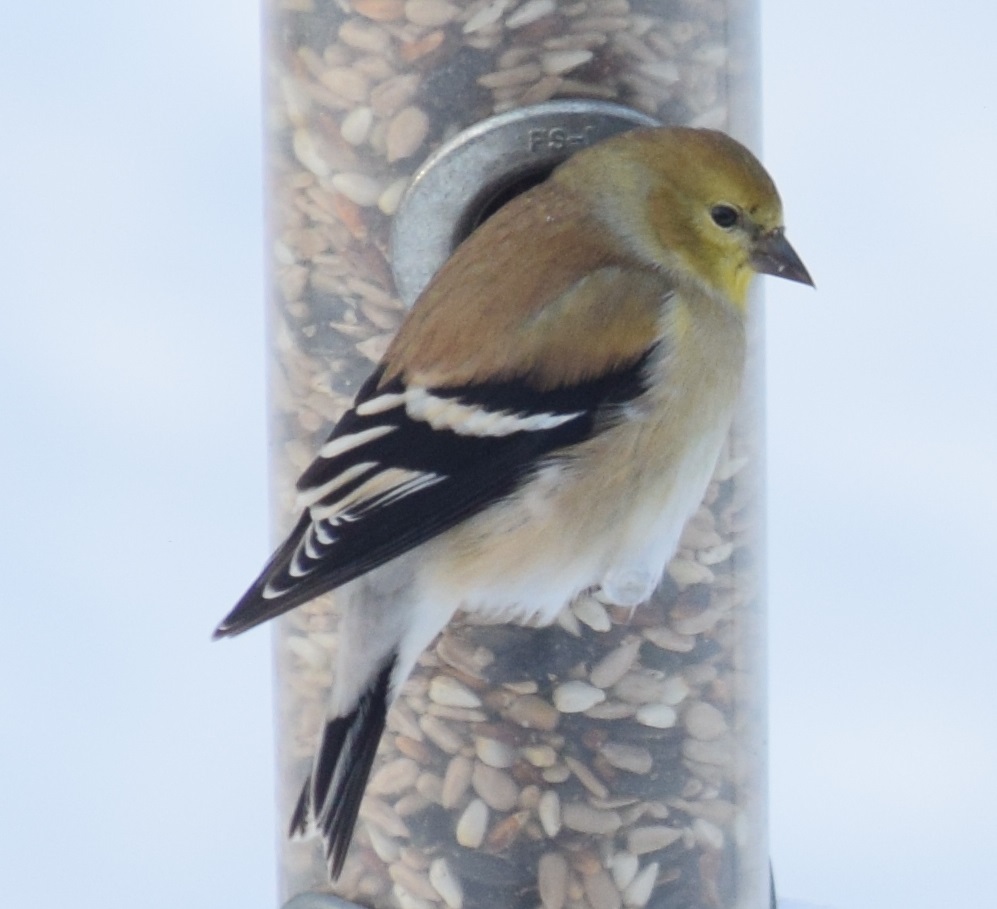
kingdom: Animalia
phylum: Chordata
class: Aves
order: Passeriformes
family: Fringillidae
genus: Spinus
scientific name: Spinus tristis
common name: American goldfinch
